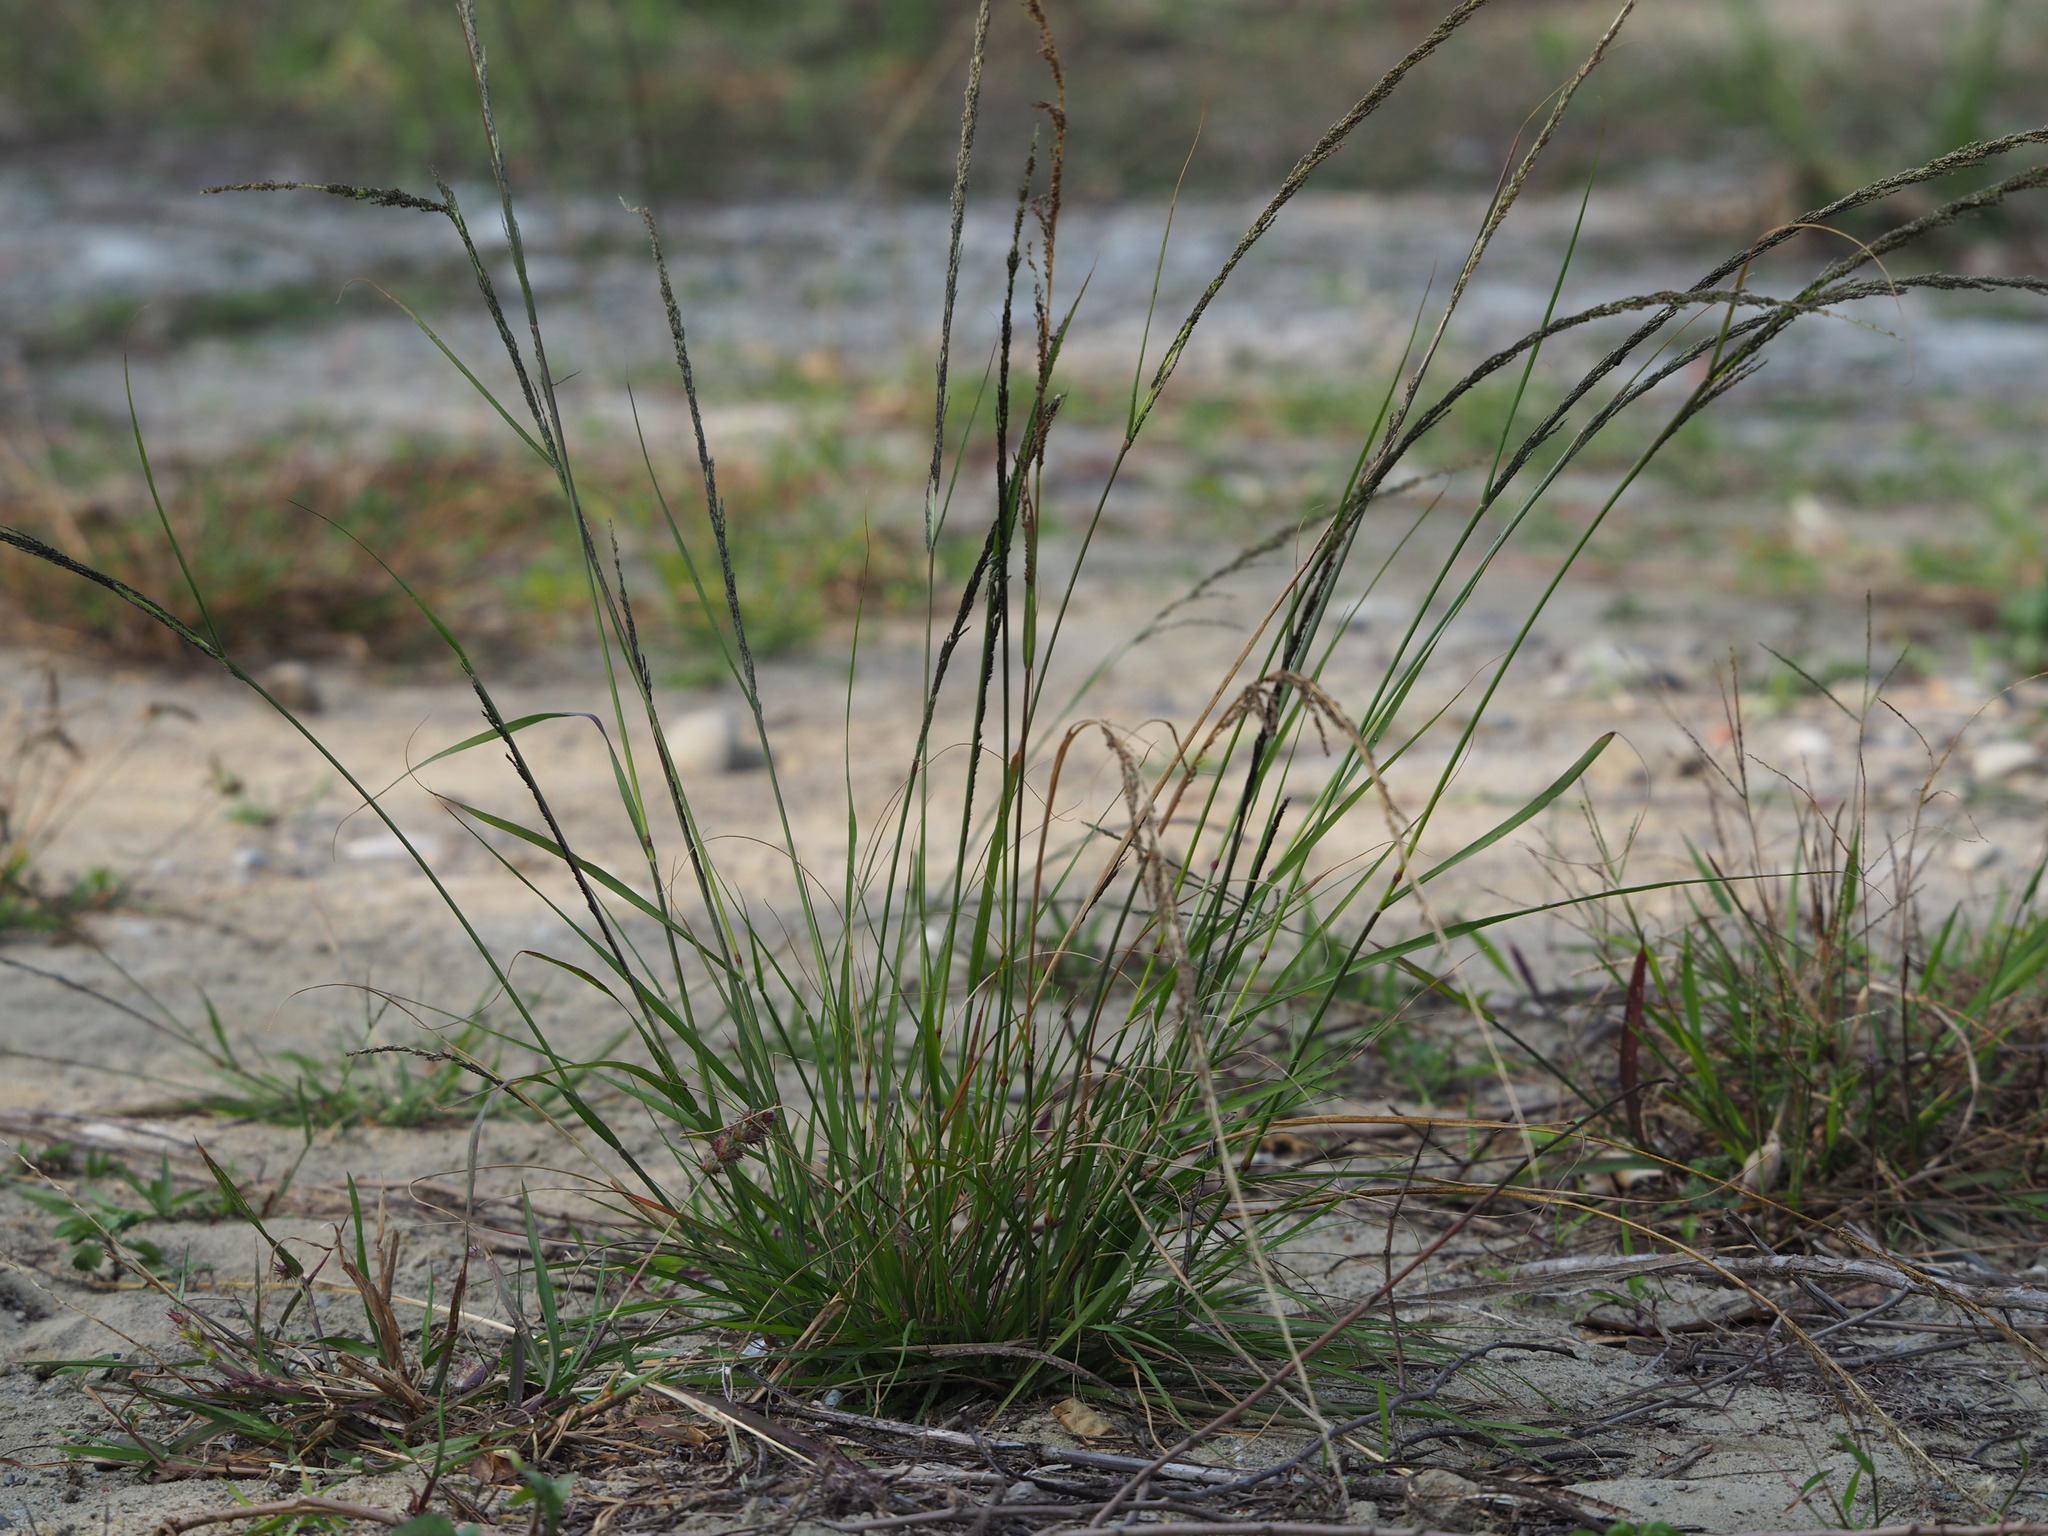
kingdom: Plantae
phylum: Tracheophyta
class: Liliopsida
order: Poales
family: Poaceae
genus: Sporobolus
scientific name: Sporobolus indicus
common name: Smut grass
